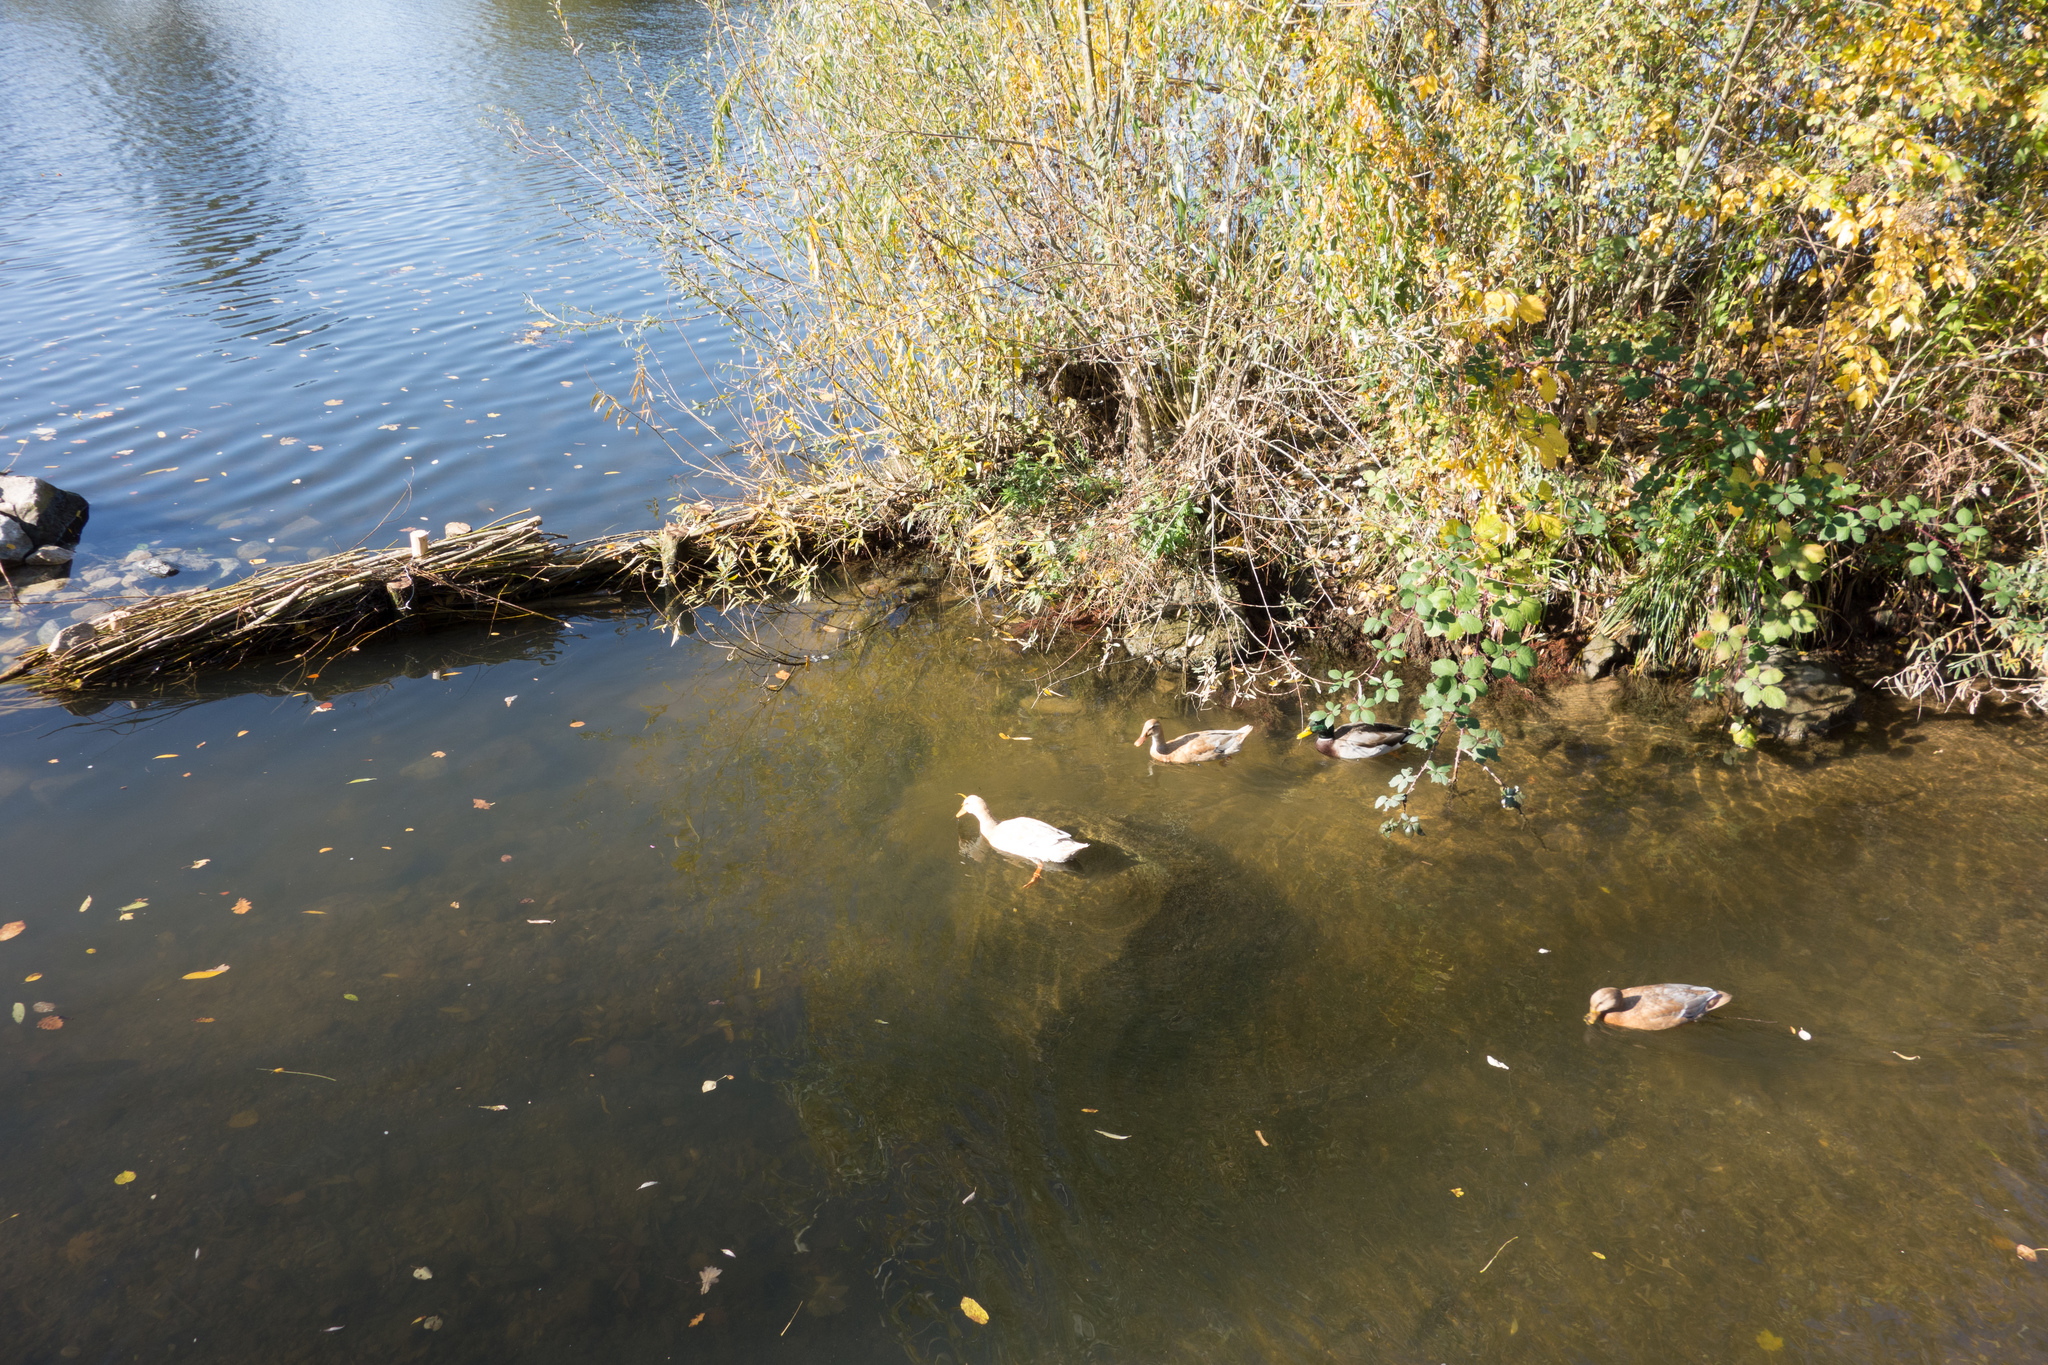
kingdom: Animalia
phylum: Chordata
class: Aves
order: Anseriformes
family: Anatidae
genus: Anas
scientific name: Anas platyrhynchos
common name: Mallard
